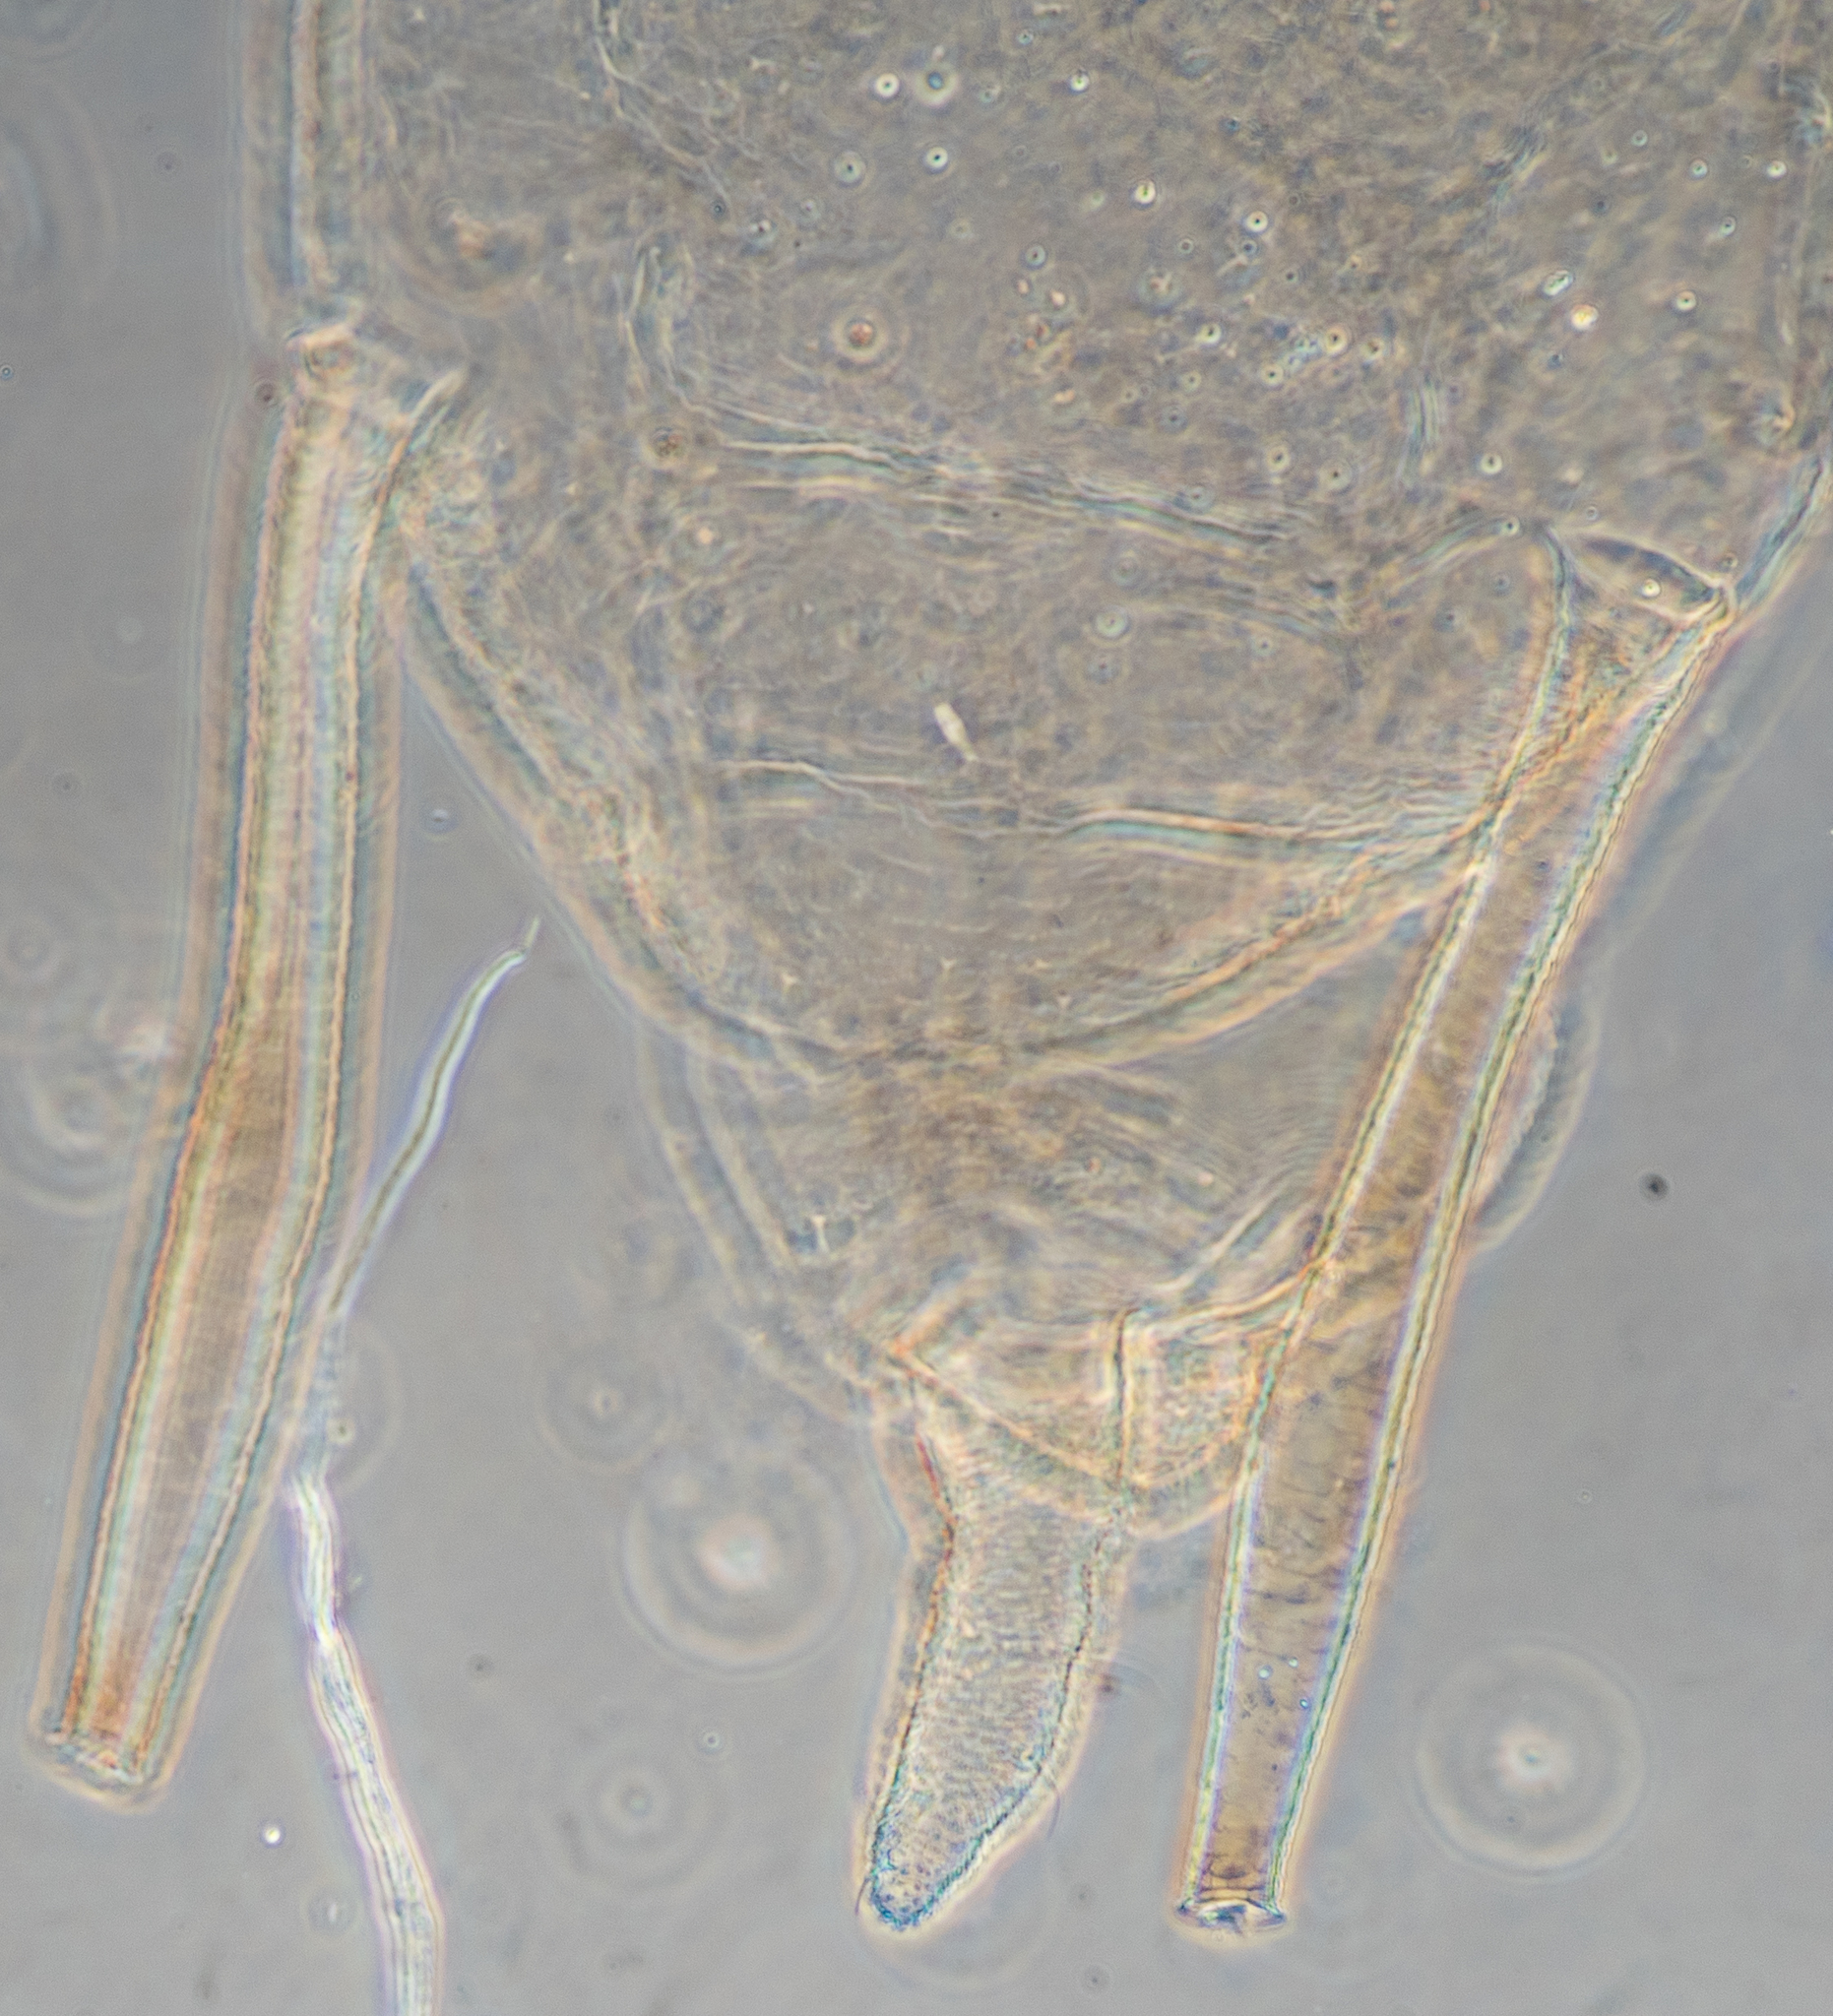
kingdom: Animalia
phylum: Arthropoda
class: Insecta
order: Hemiptera
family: Aphididae
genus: Wahlgreniella
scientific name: Wahlgreniella nervata
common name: Pale green aphid
